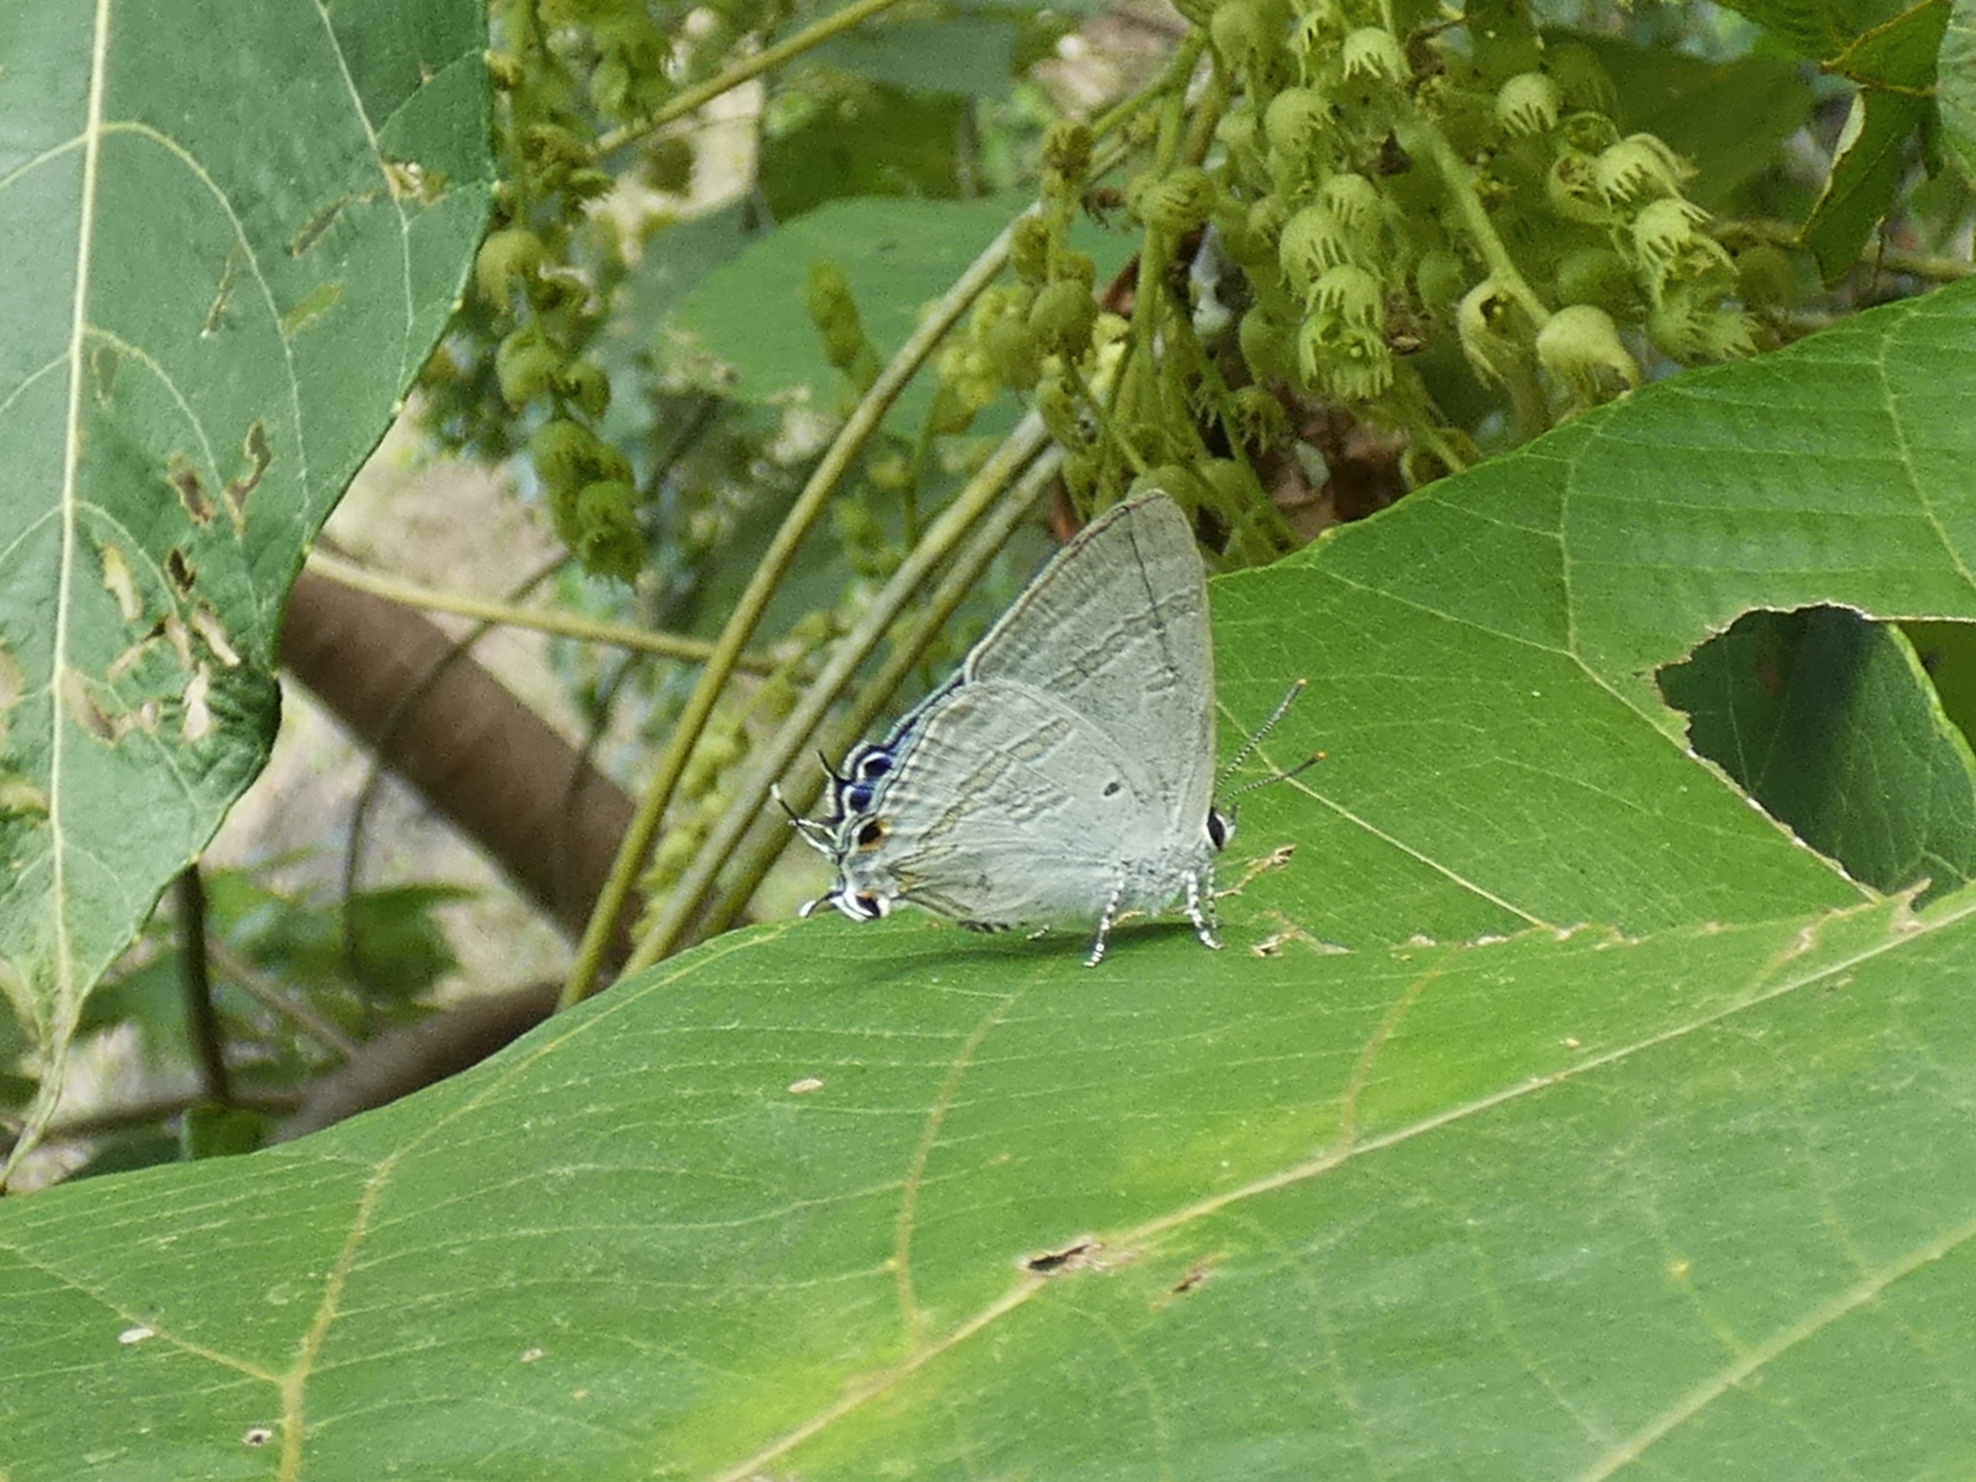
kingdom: Animalia
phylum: Arthropoda
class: Insecta
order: Lepidoptera
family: Lycaenidae
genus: Hypolycaena
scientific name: Hypolycaena phorbas
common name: Black-spotted flash
